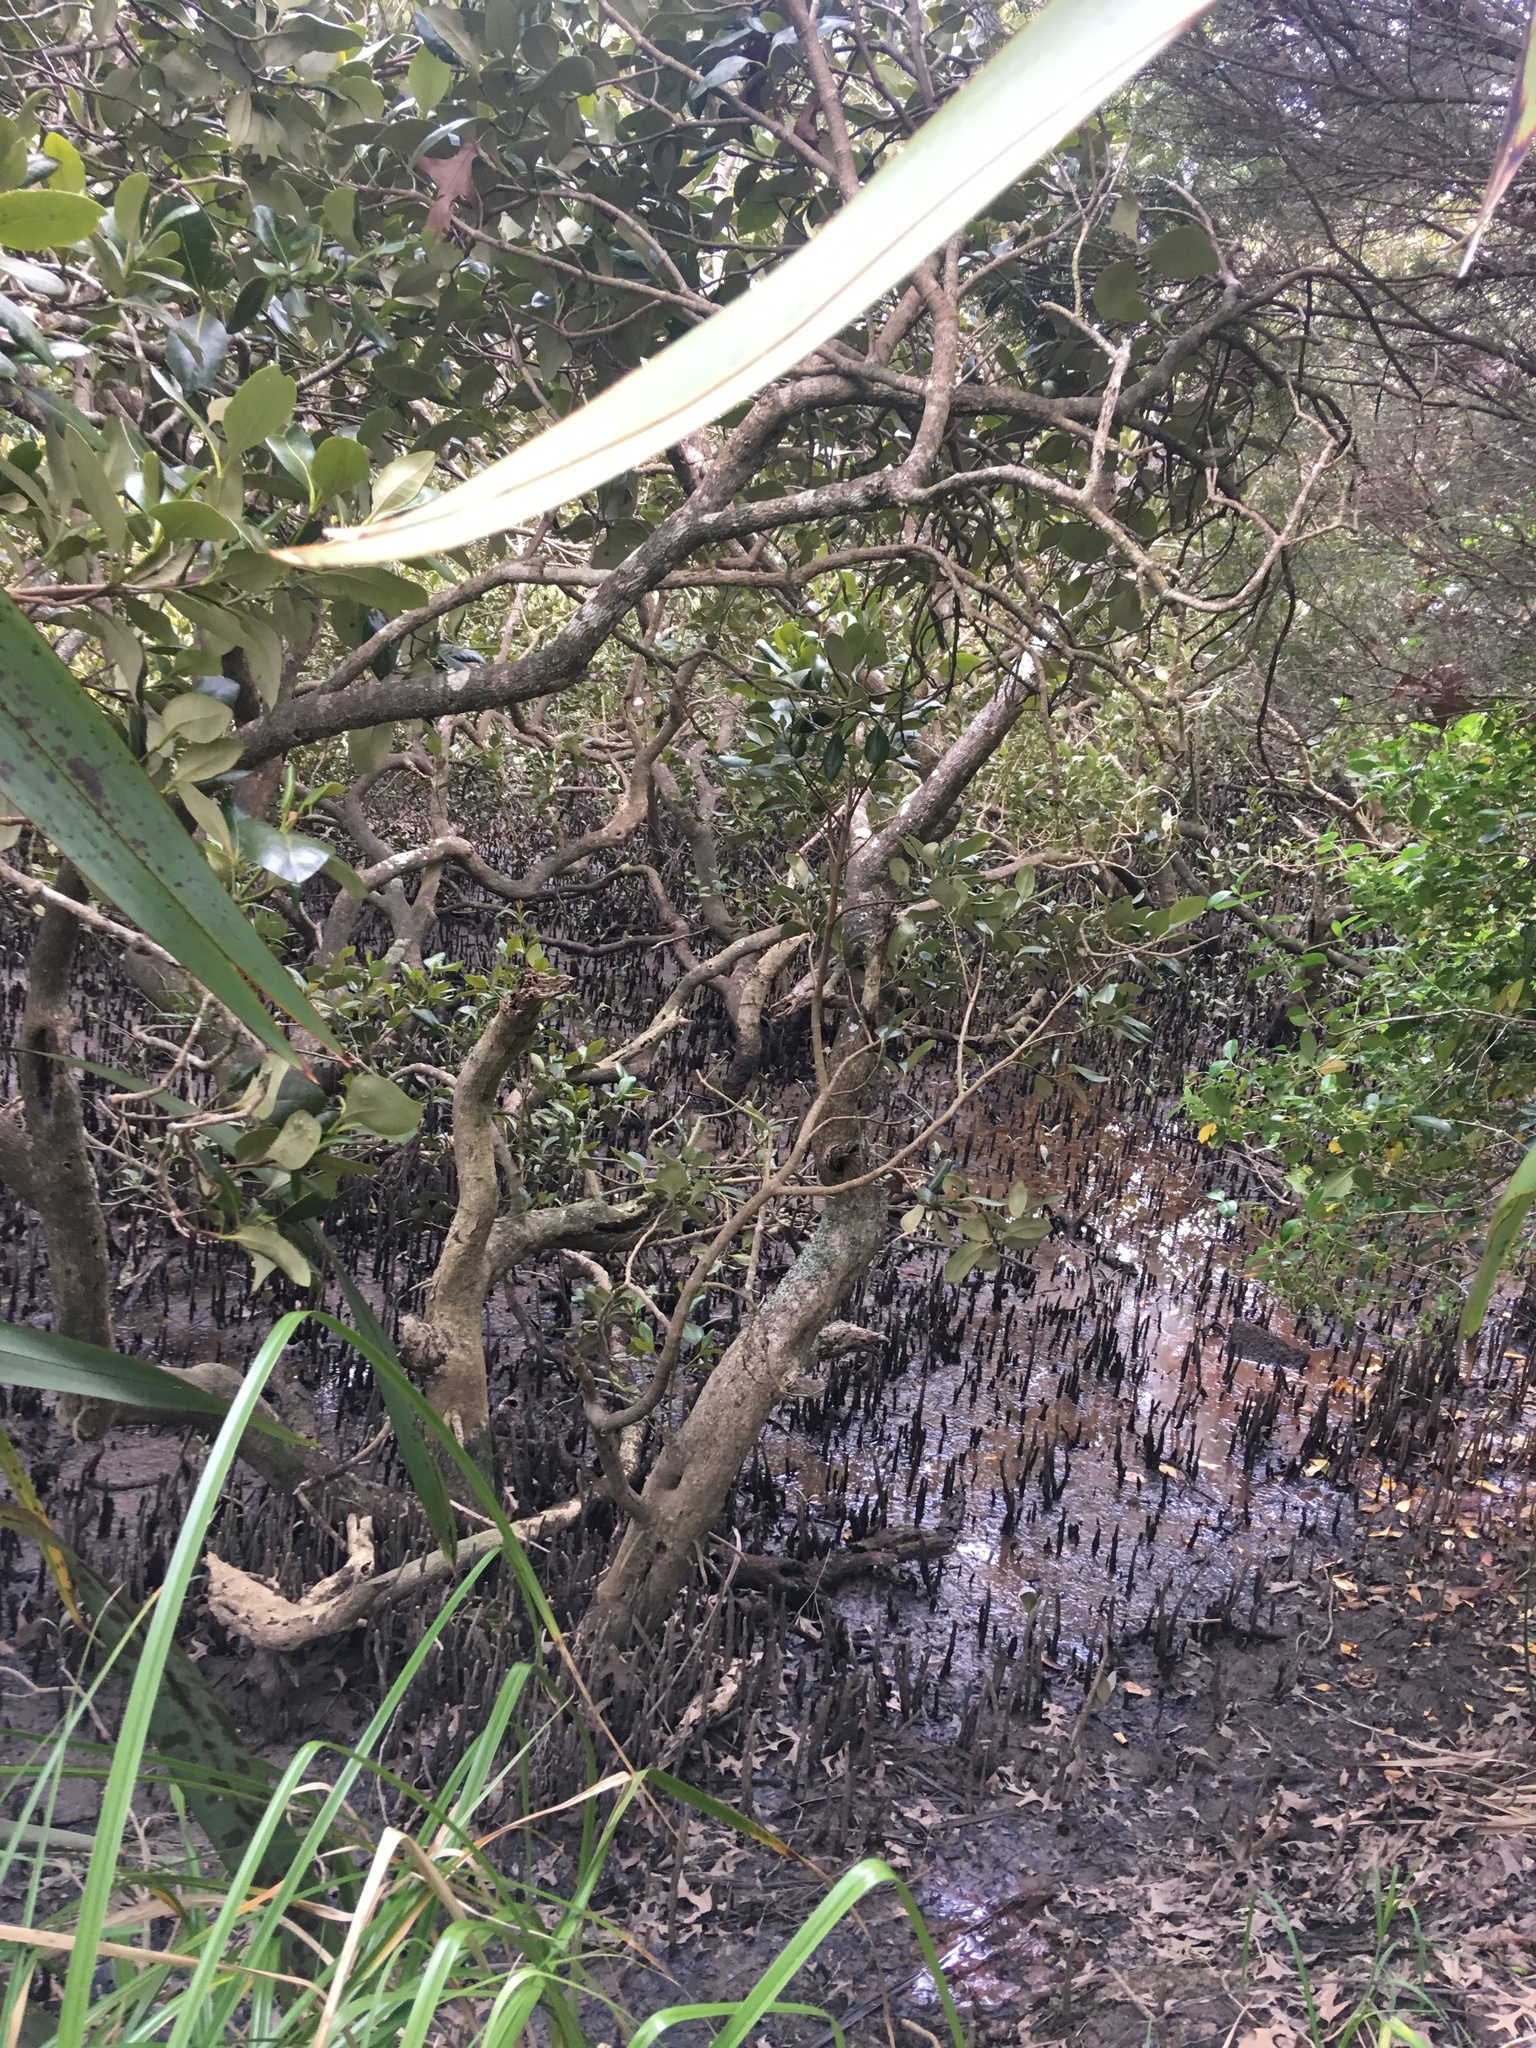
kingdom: Plantae
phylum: Tracheophyta
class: Magnoliopsida
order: Lamiales
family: Acanthaceae
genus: Avicennia
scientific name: Avicennia marina
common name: Gray mangrove
